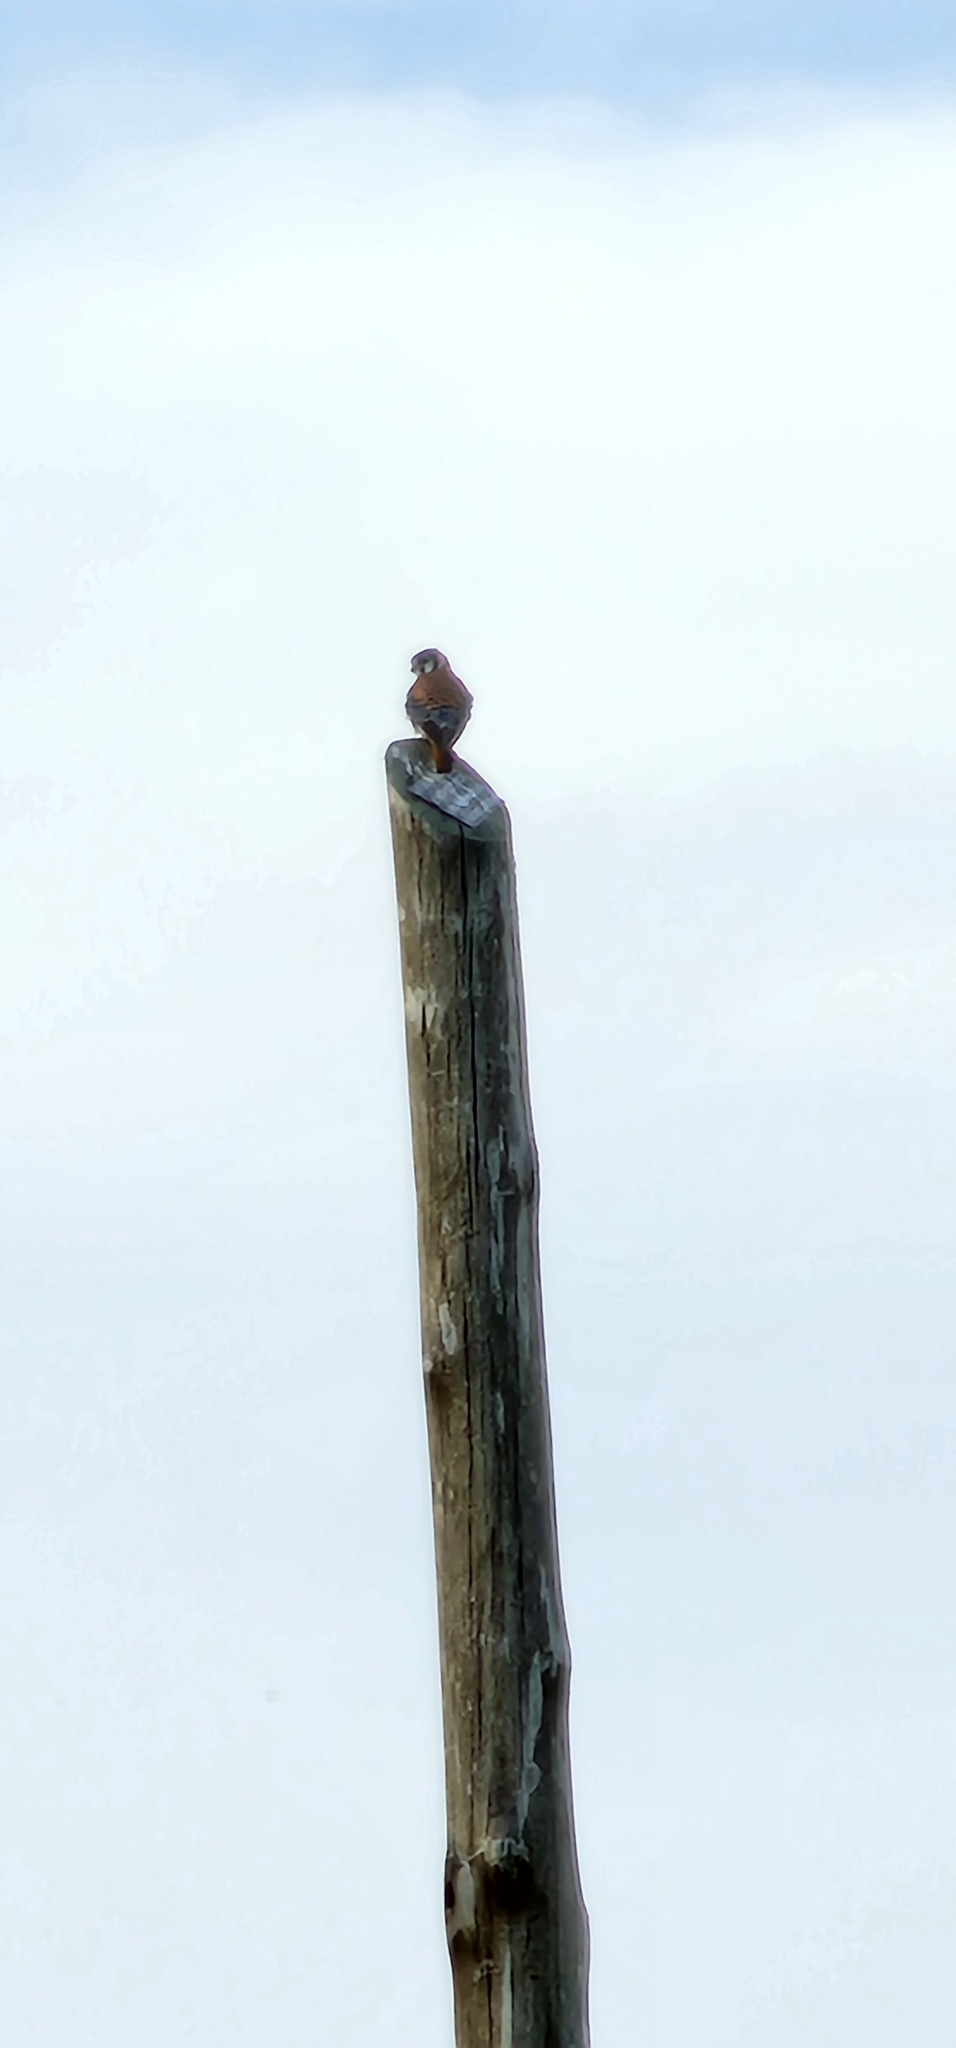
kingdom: Animalia
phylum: Chordata
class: Aves
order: Falconiformes
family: Falconidae
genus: Falco
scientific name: Falco sparverius
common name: American kestrel
